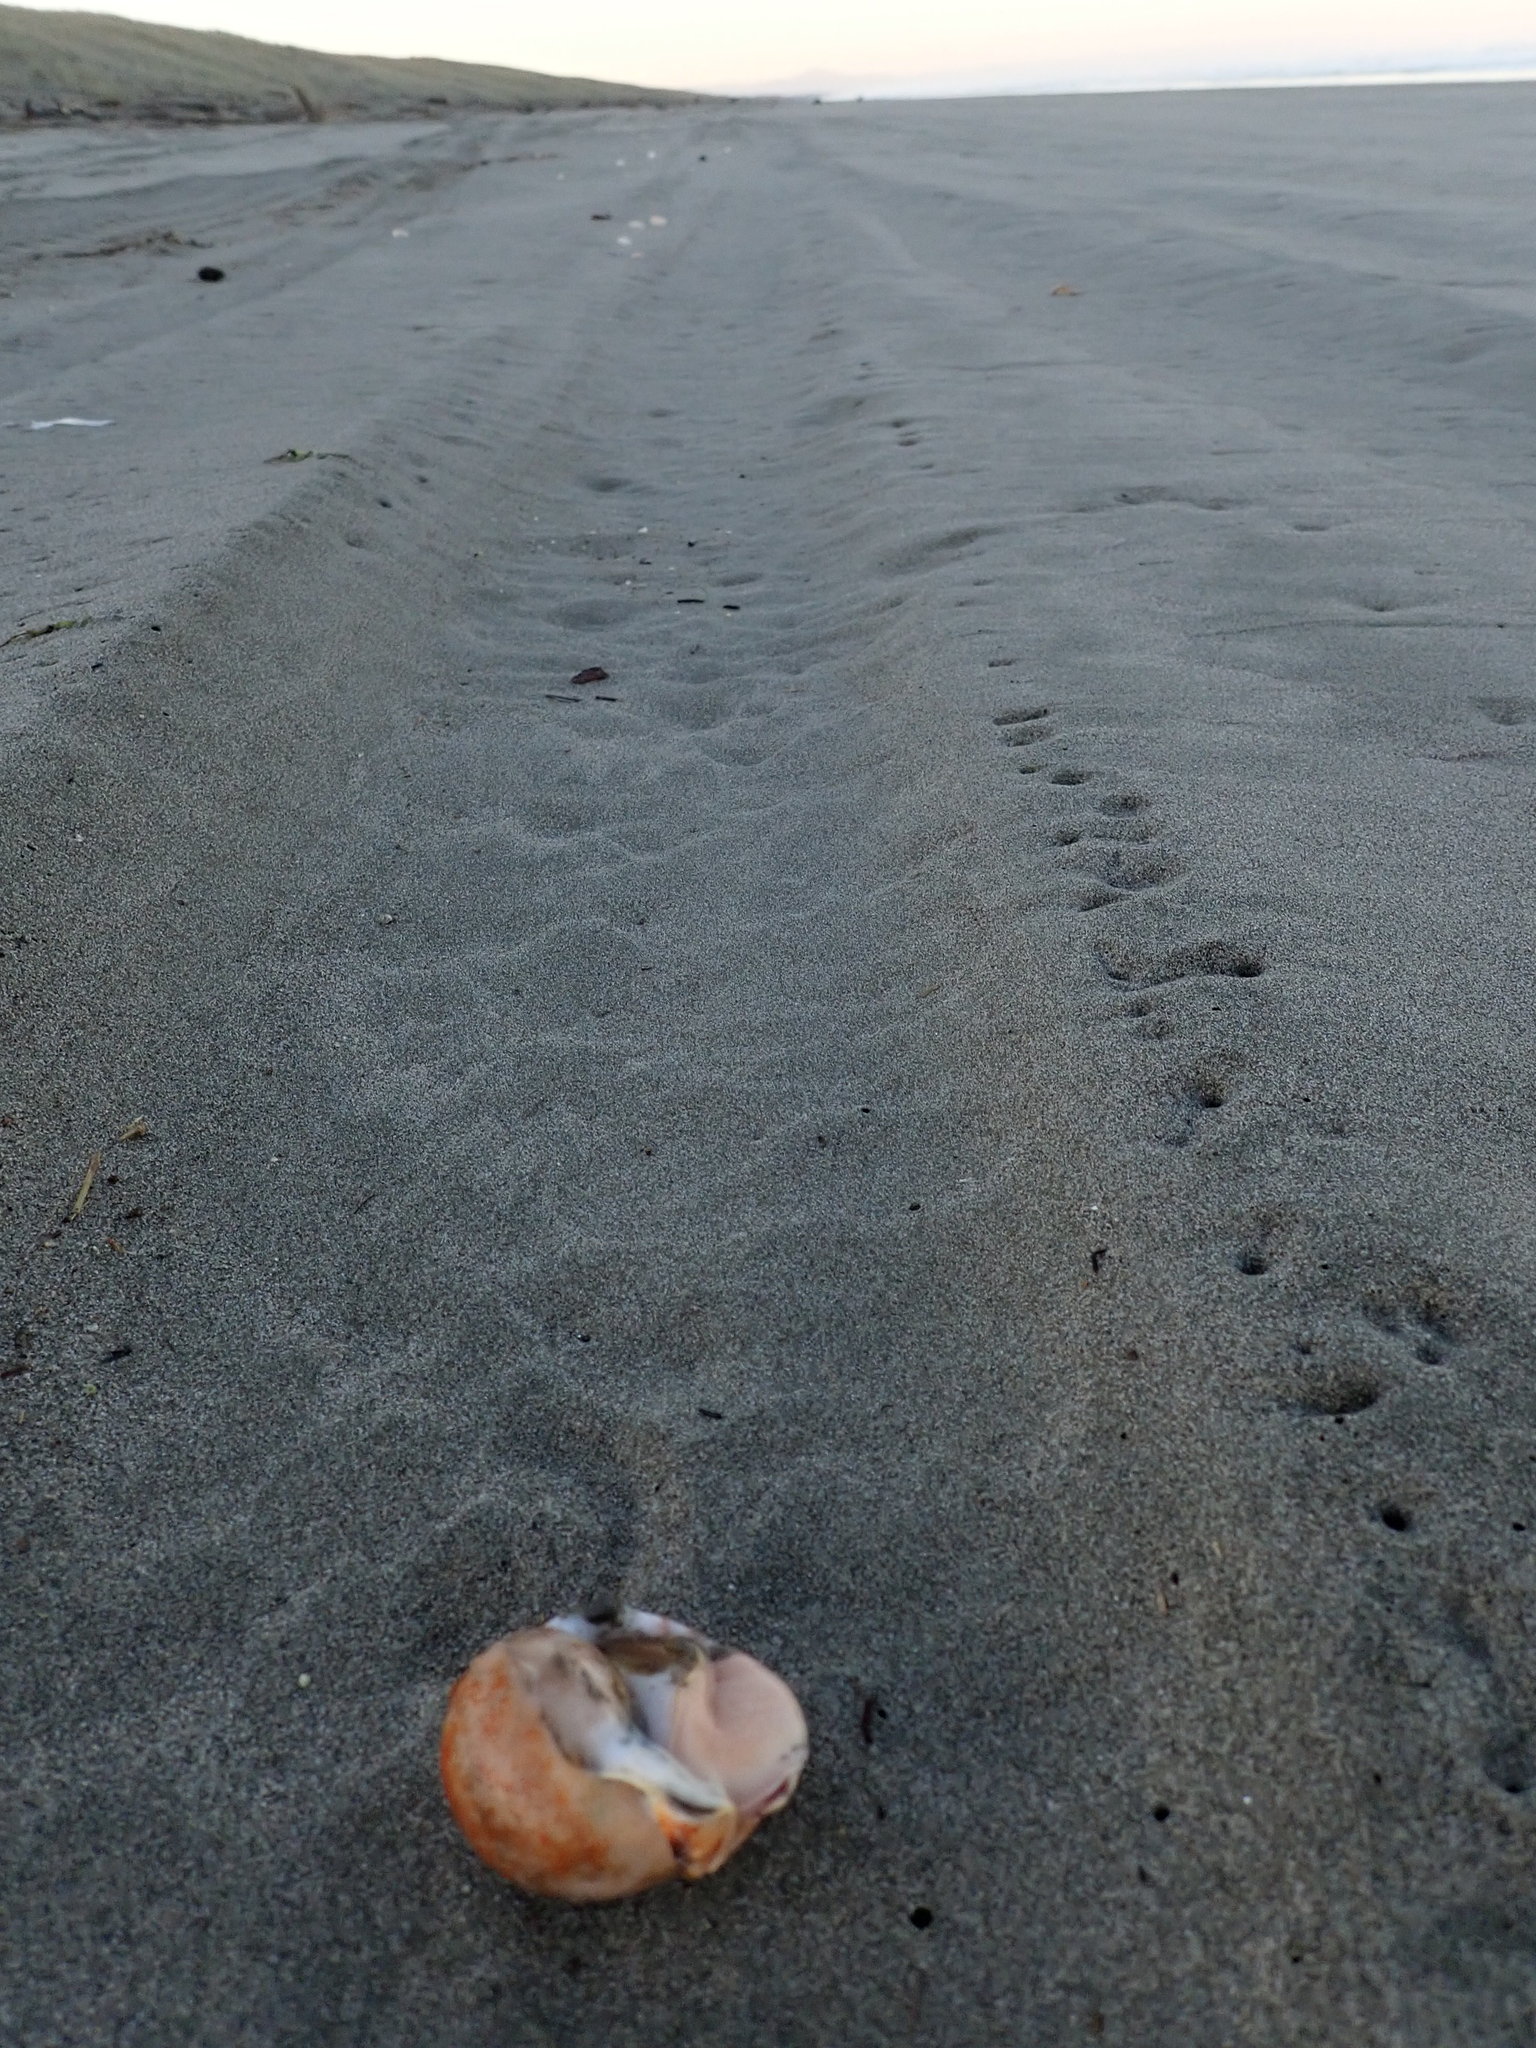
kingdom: Animalia
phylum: Mollusca
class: Gastropoda
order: Littorinimorpha
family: Cassidae
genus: Semicassis
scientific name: Semicassis pyrum
